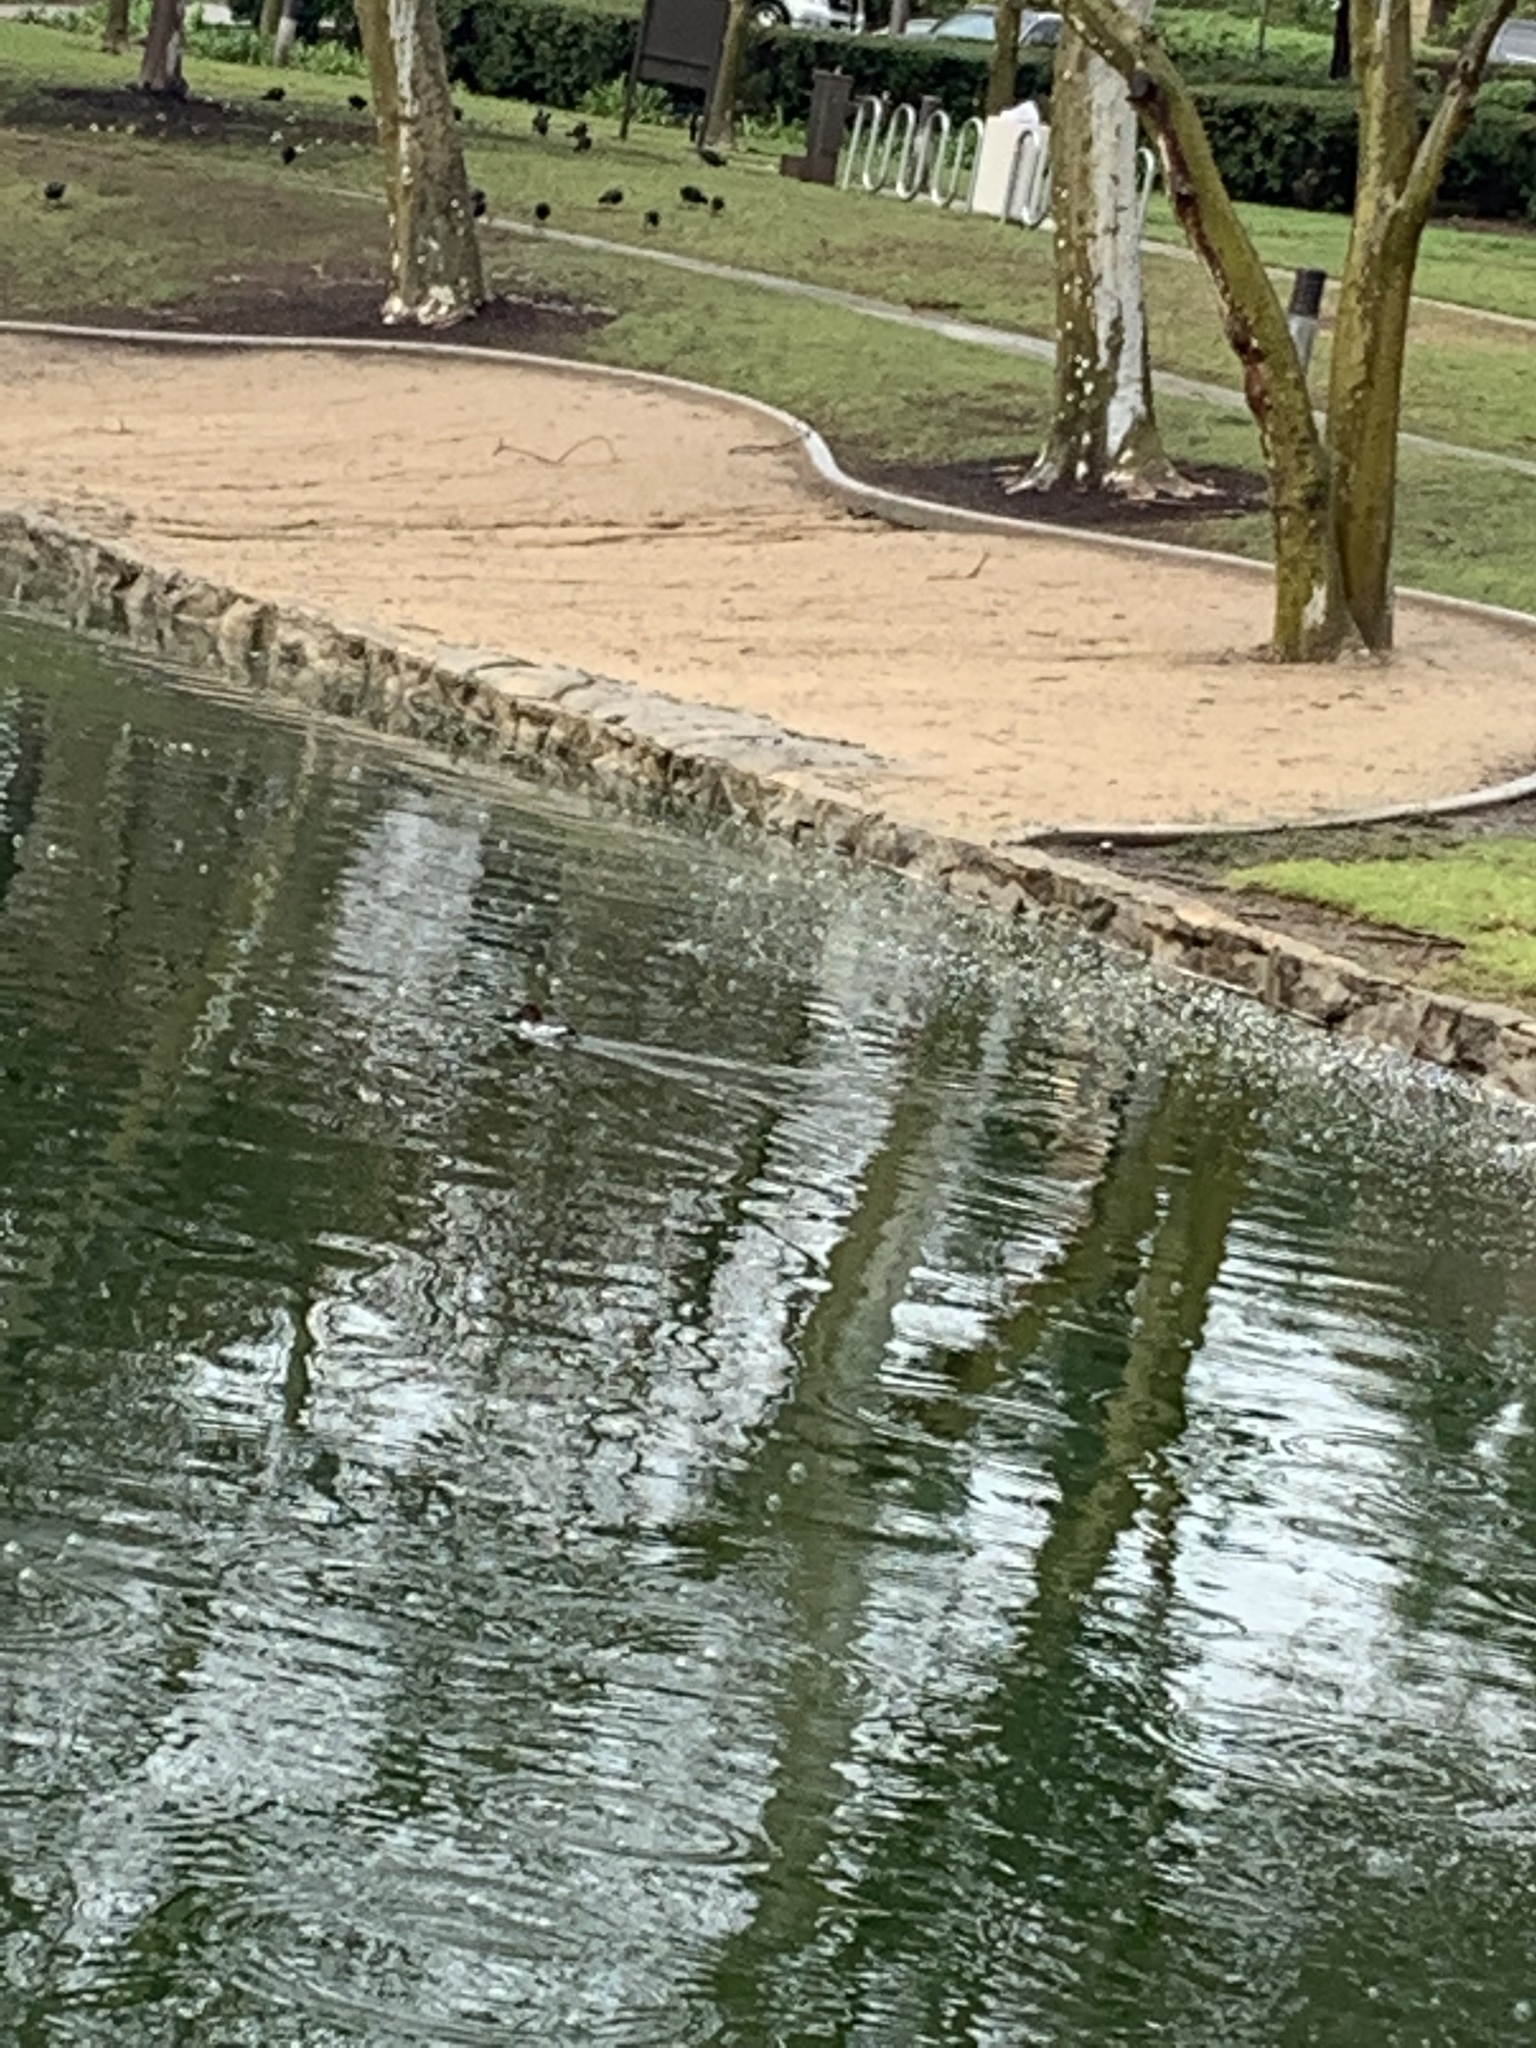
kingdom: Animalia
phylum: Chordata
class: Aves
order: Anseriformes
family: Anatidae
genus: Bucephala
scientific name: Bucephala clangula
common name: Common goldeneye
